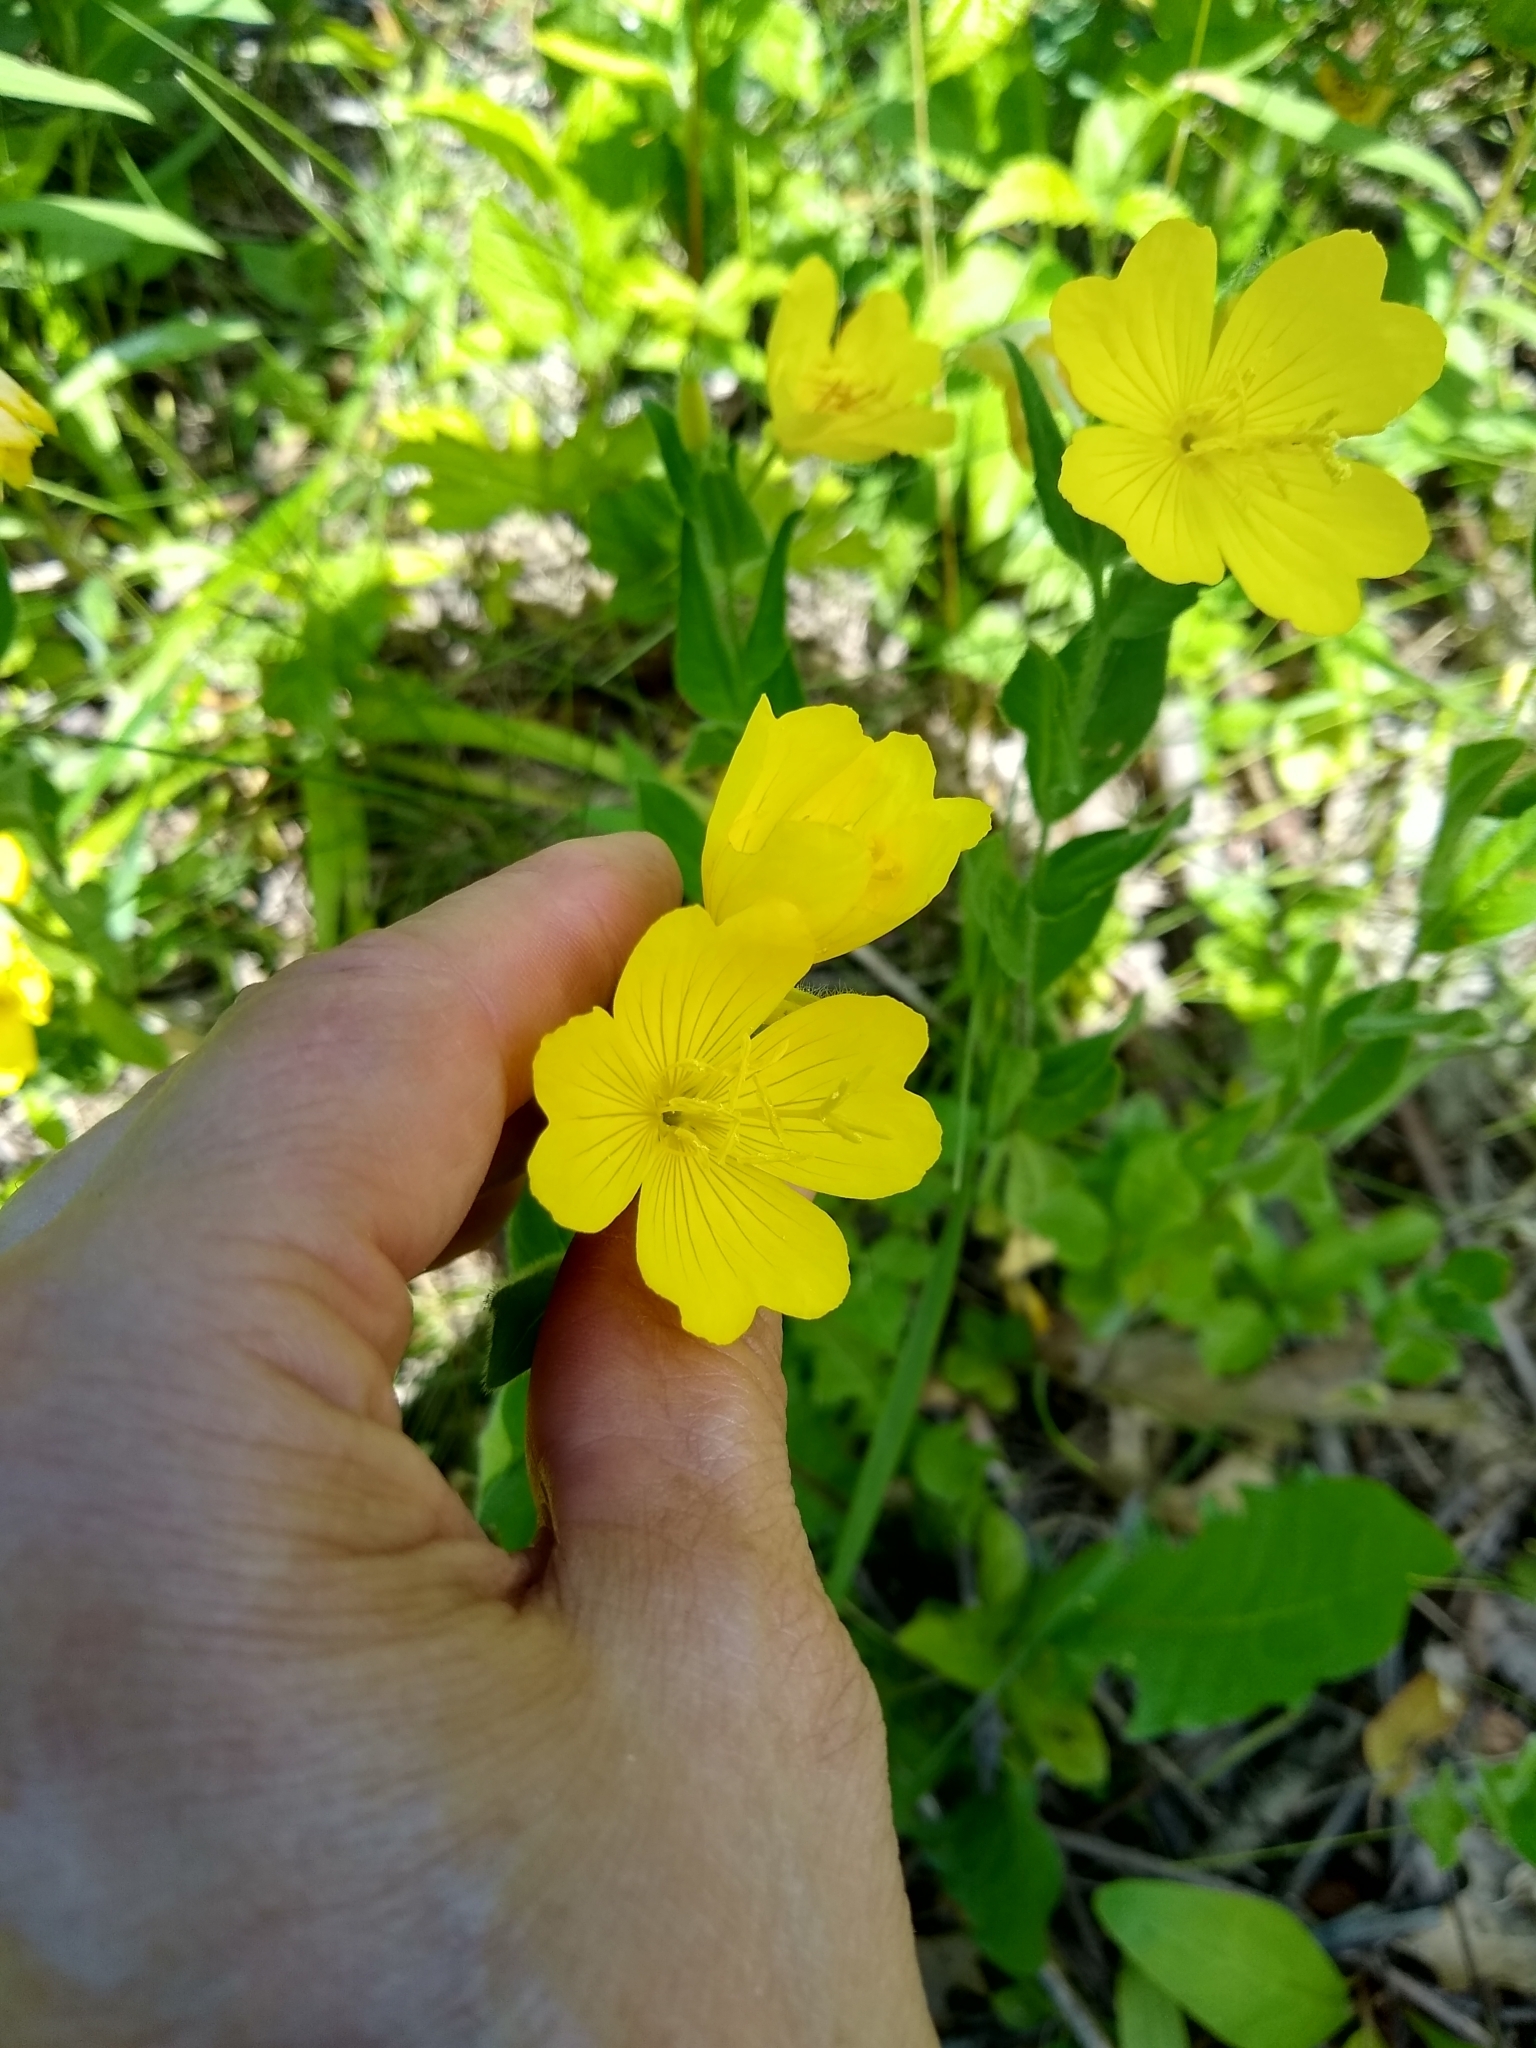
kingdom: Plantae
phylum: Tracheophyta
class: Magnoliopsida
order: Myrtales
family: Onagraceae
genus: Oenothera
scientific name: Oenothera pilosella
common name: Finely-pilose evening-primrose
